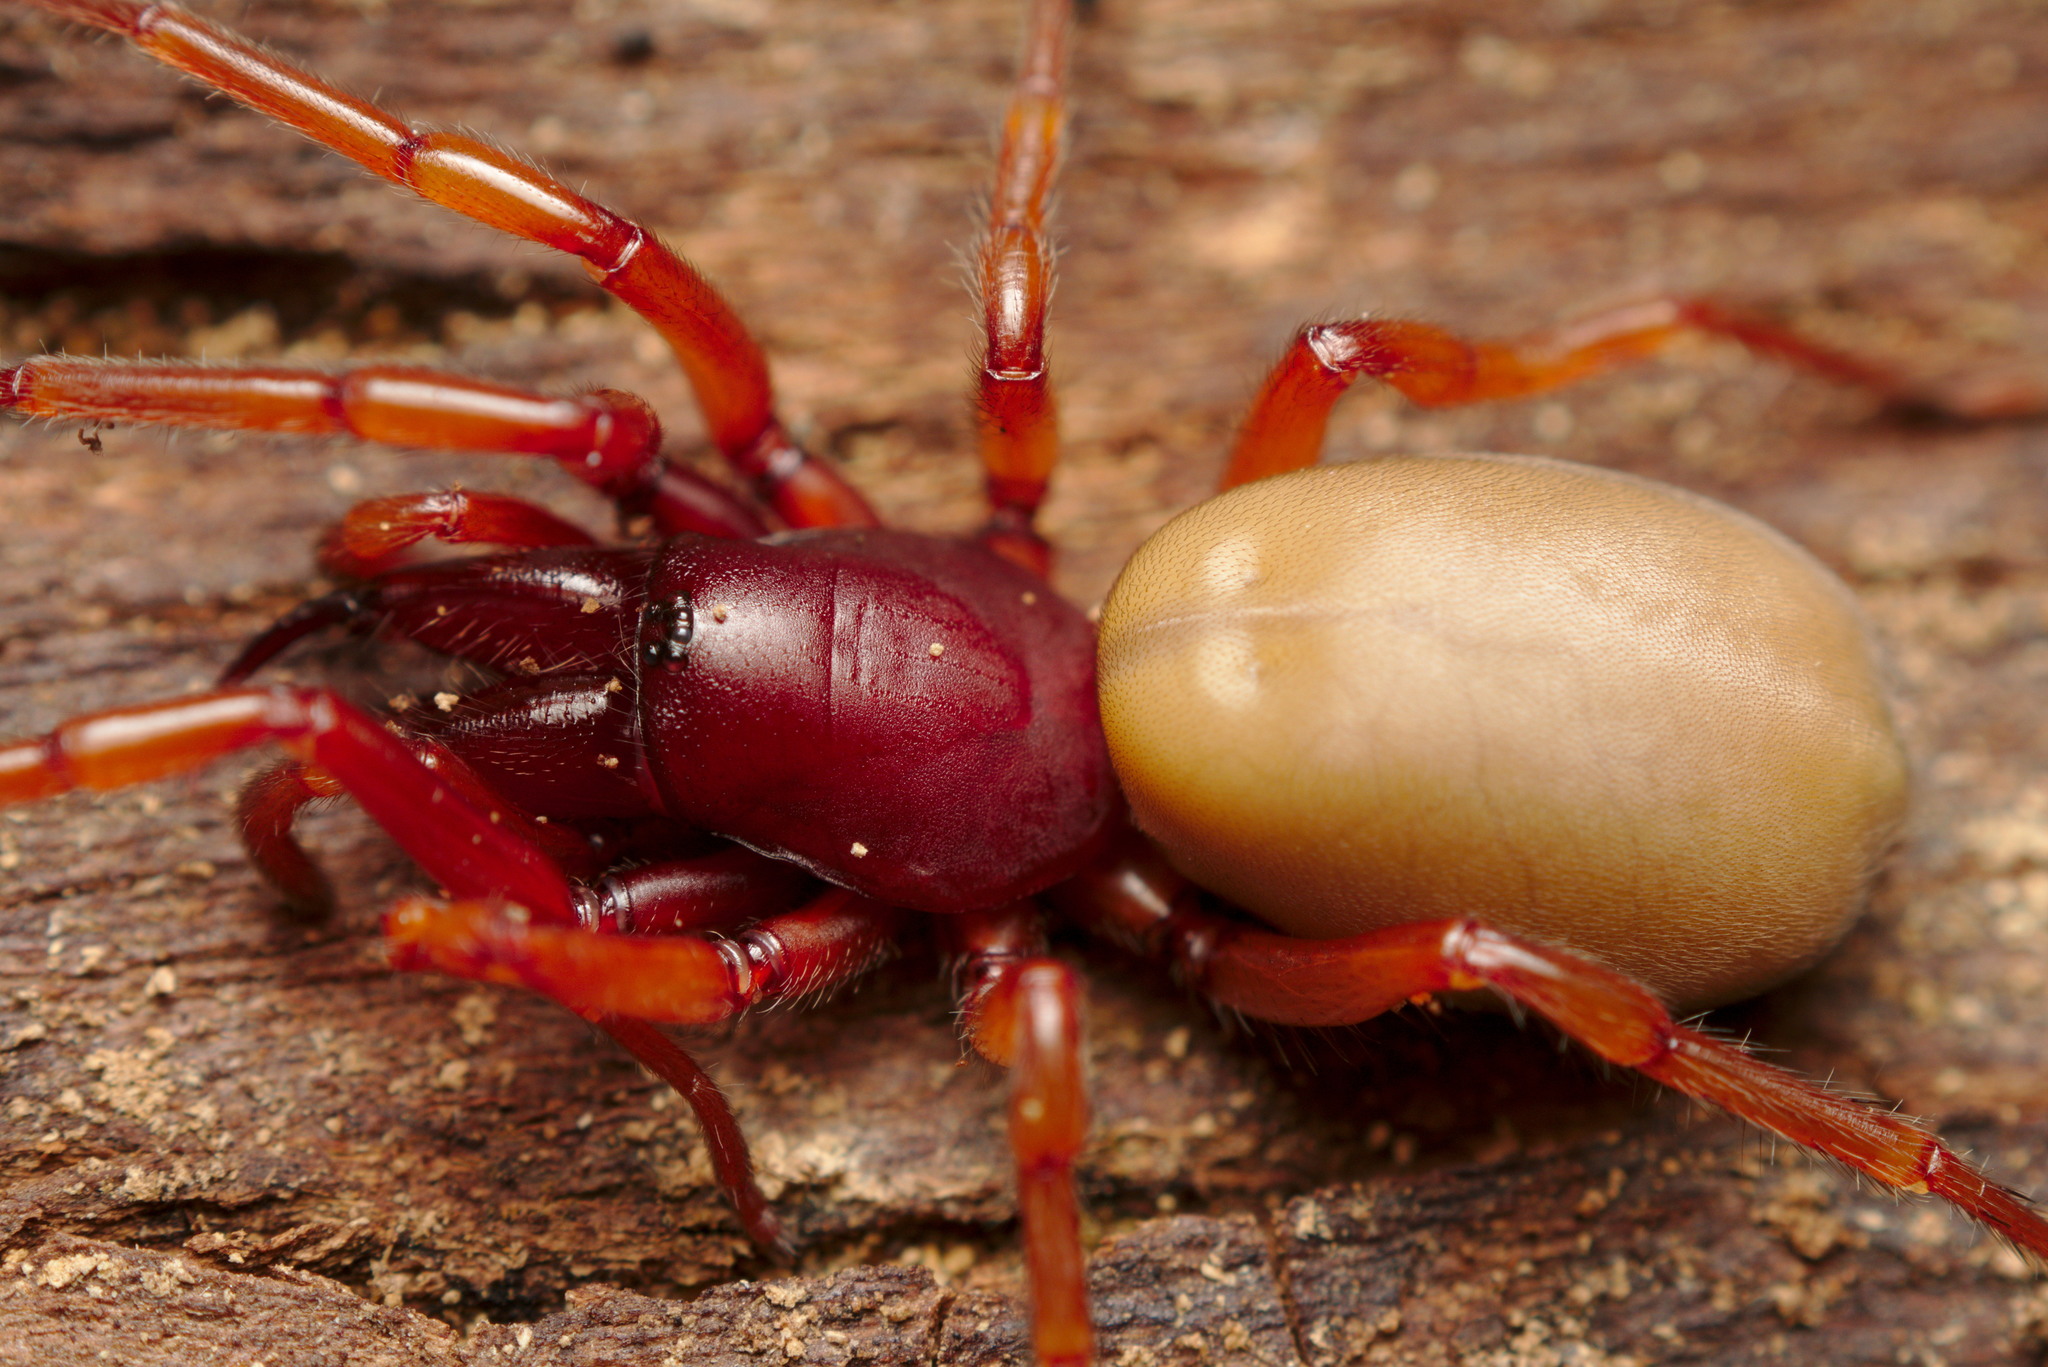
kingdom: Animalia
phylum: Arthropoda
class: Arachnida
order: Araneae
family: Dysderidae
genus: Dysdera
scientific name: Dysdera crocata
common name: Woodlouse spider
